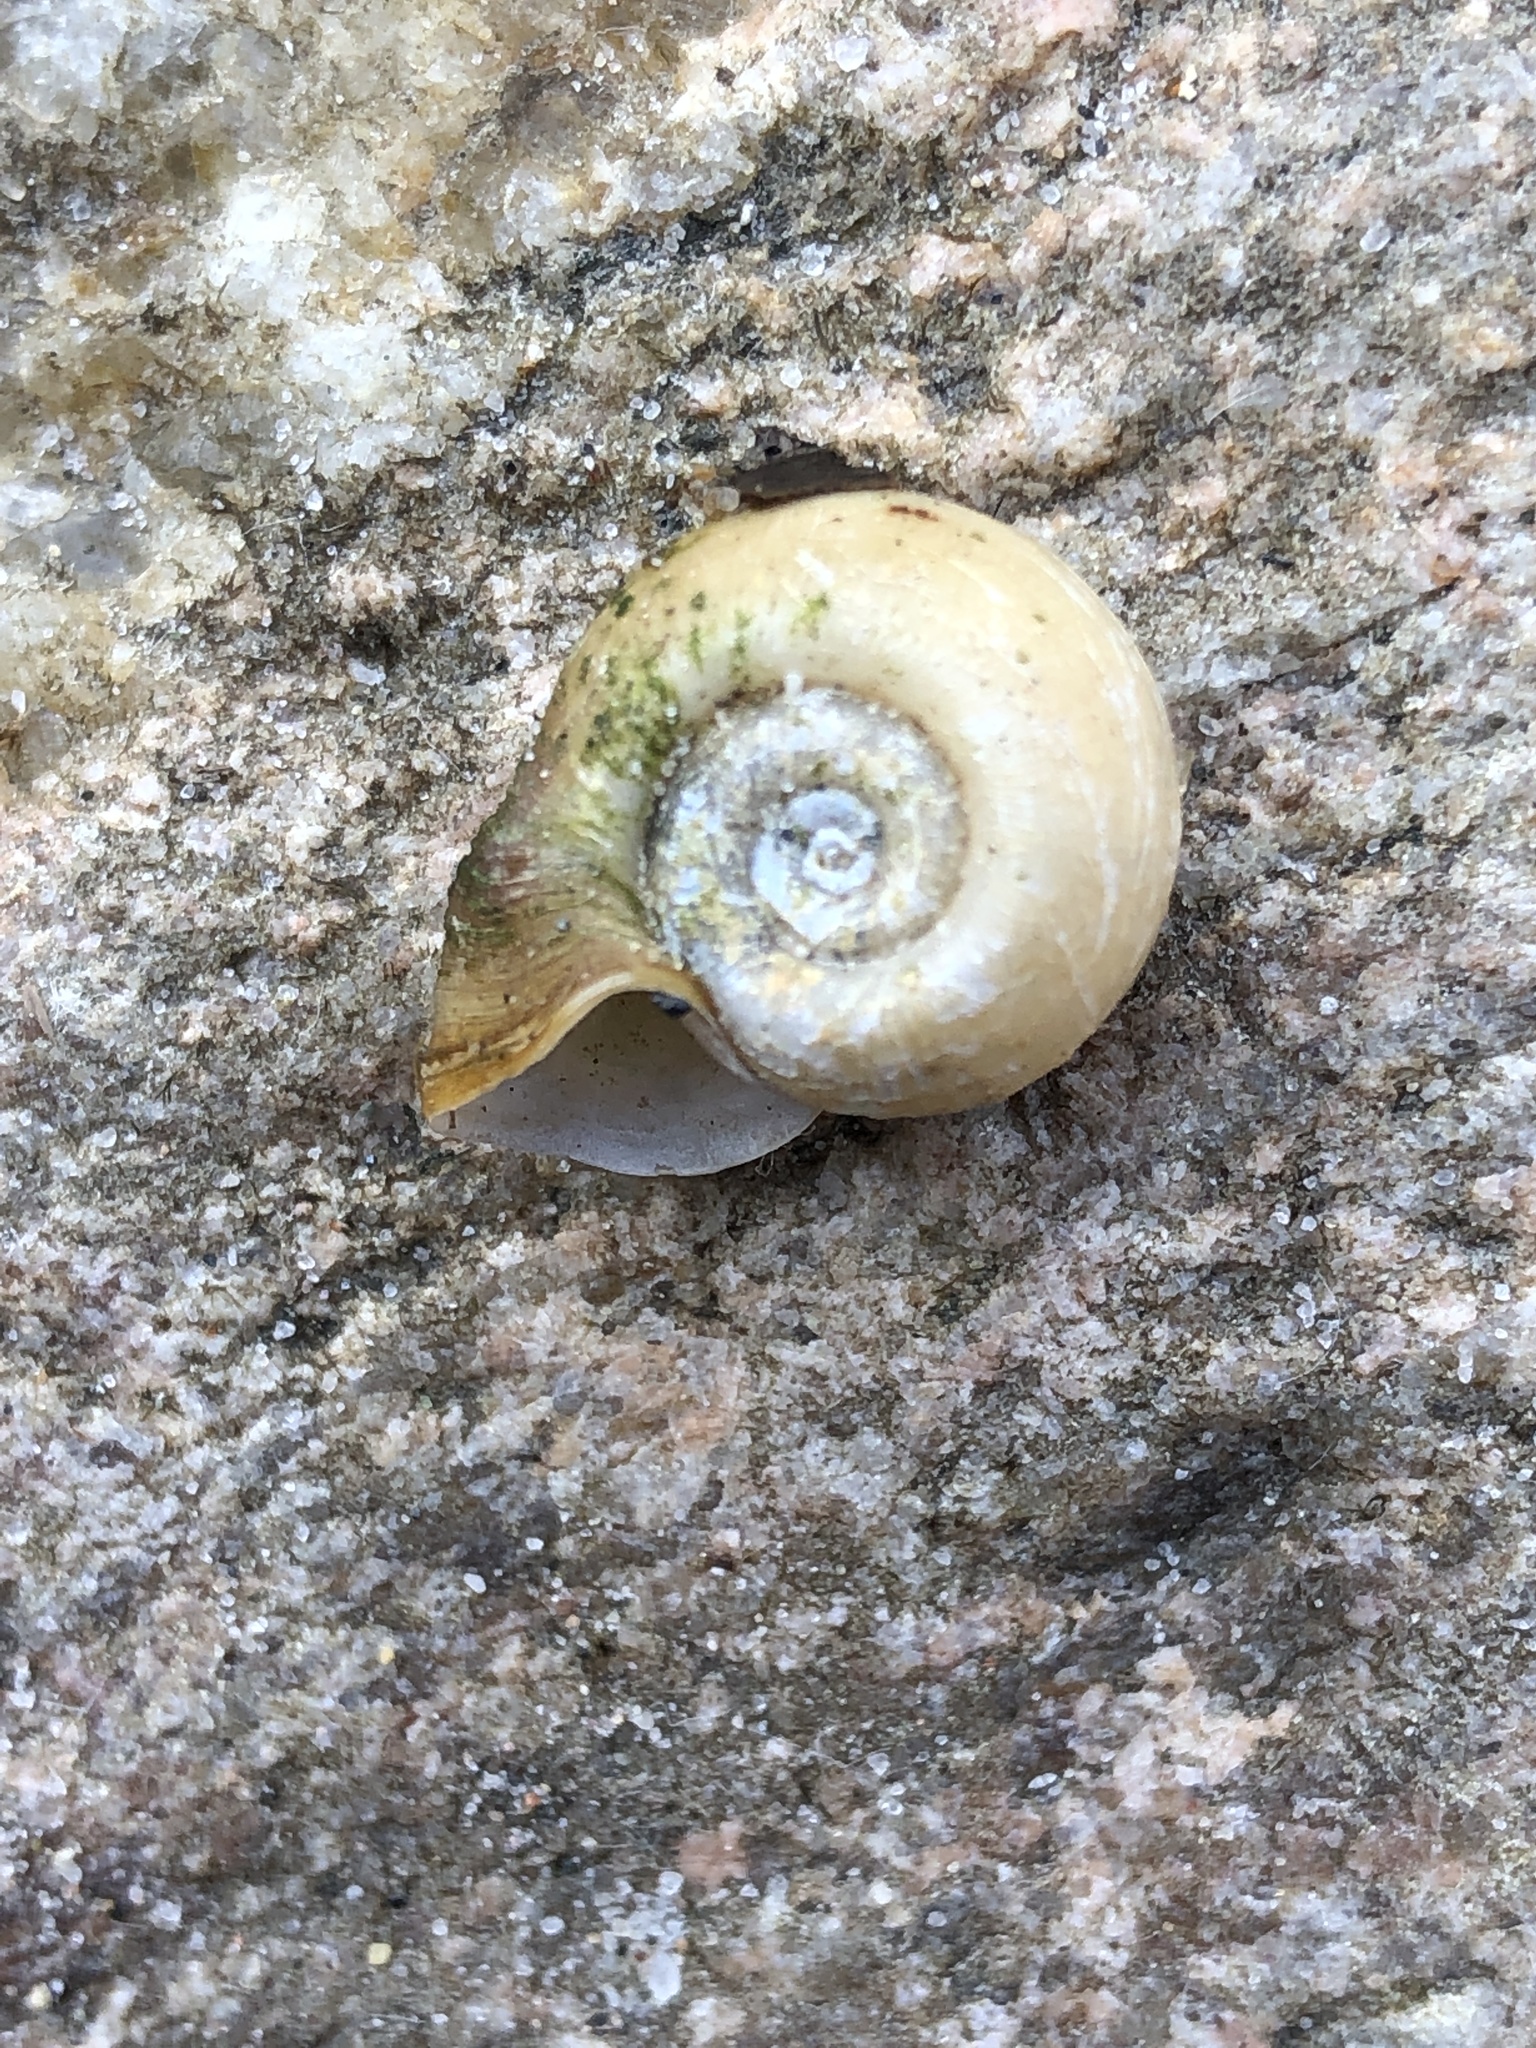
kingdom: Animalia
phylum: Mollusca
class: Gastropoda
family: Planorbidae
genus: Planorbella
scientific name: Planorbella campanulata
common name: Bellmouth ramshorn
